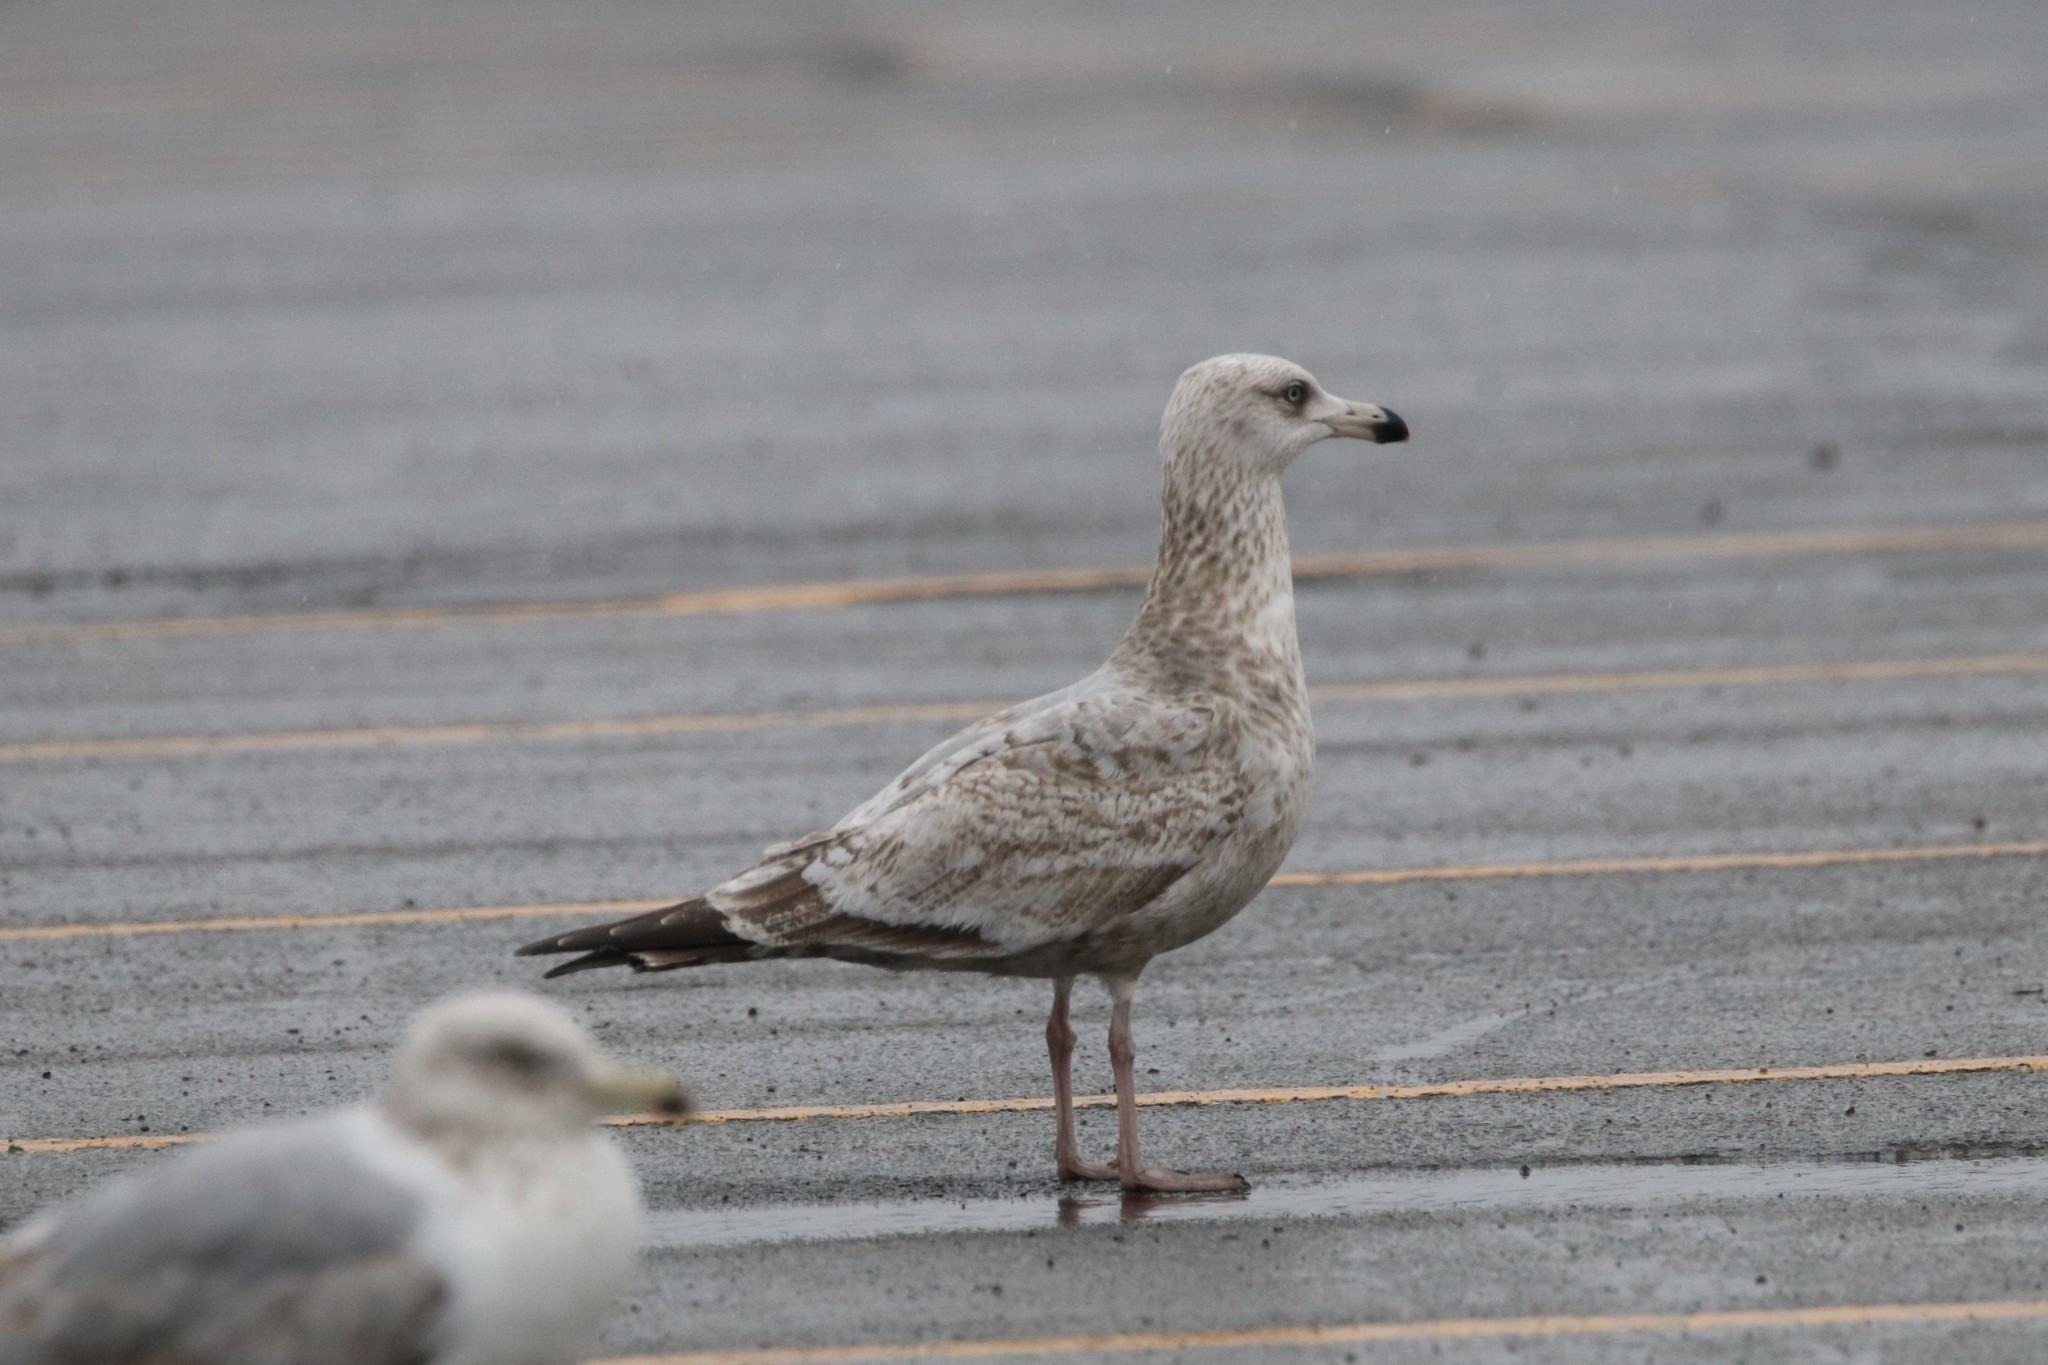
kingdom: Animalia
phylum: Chordata
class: Aves
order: Charadriiformes
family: Laridae
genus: Larus
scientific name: Larus argentatus
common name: Herring gull
